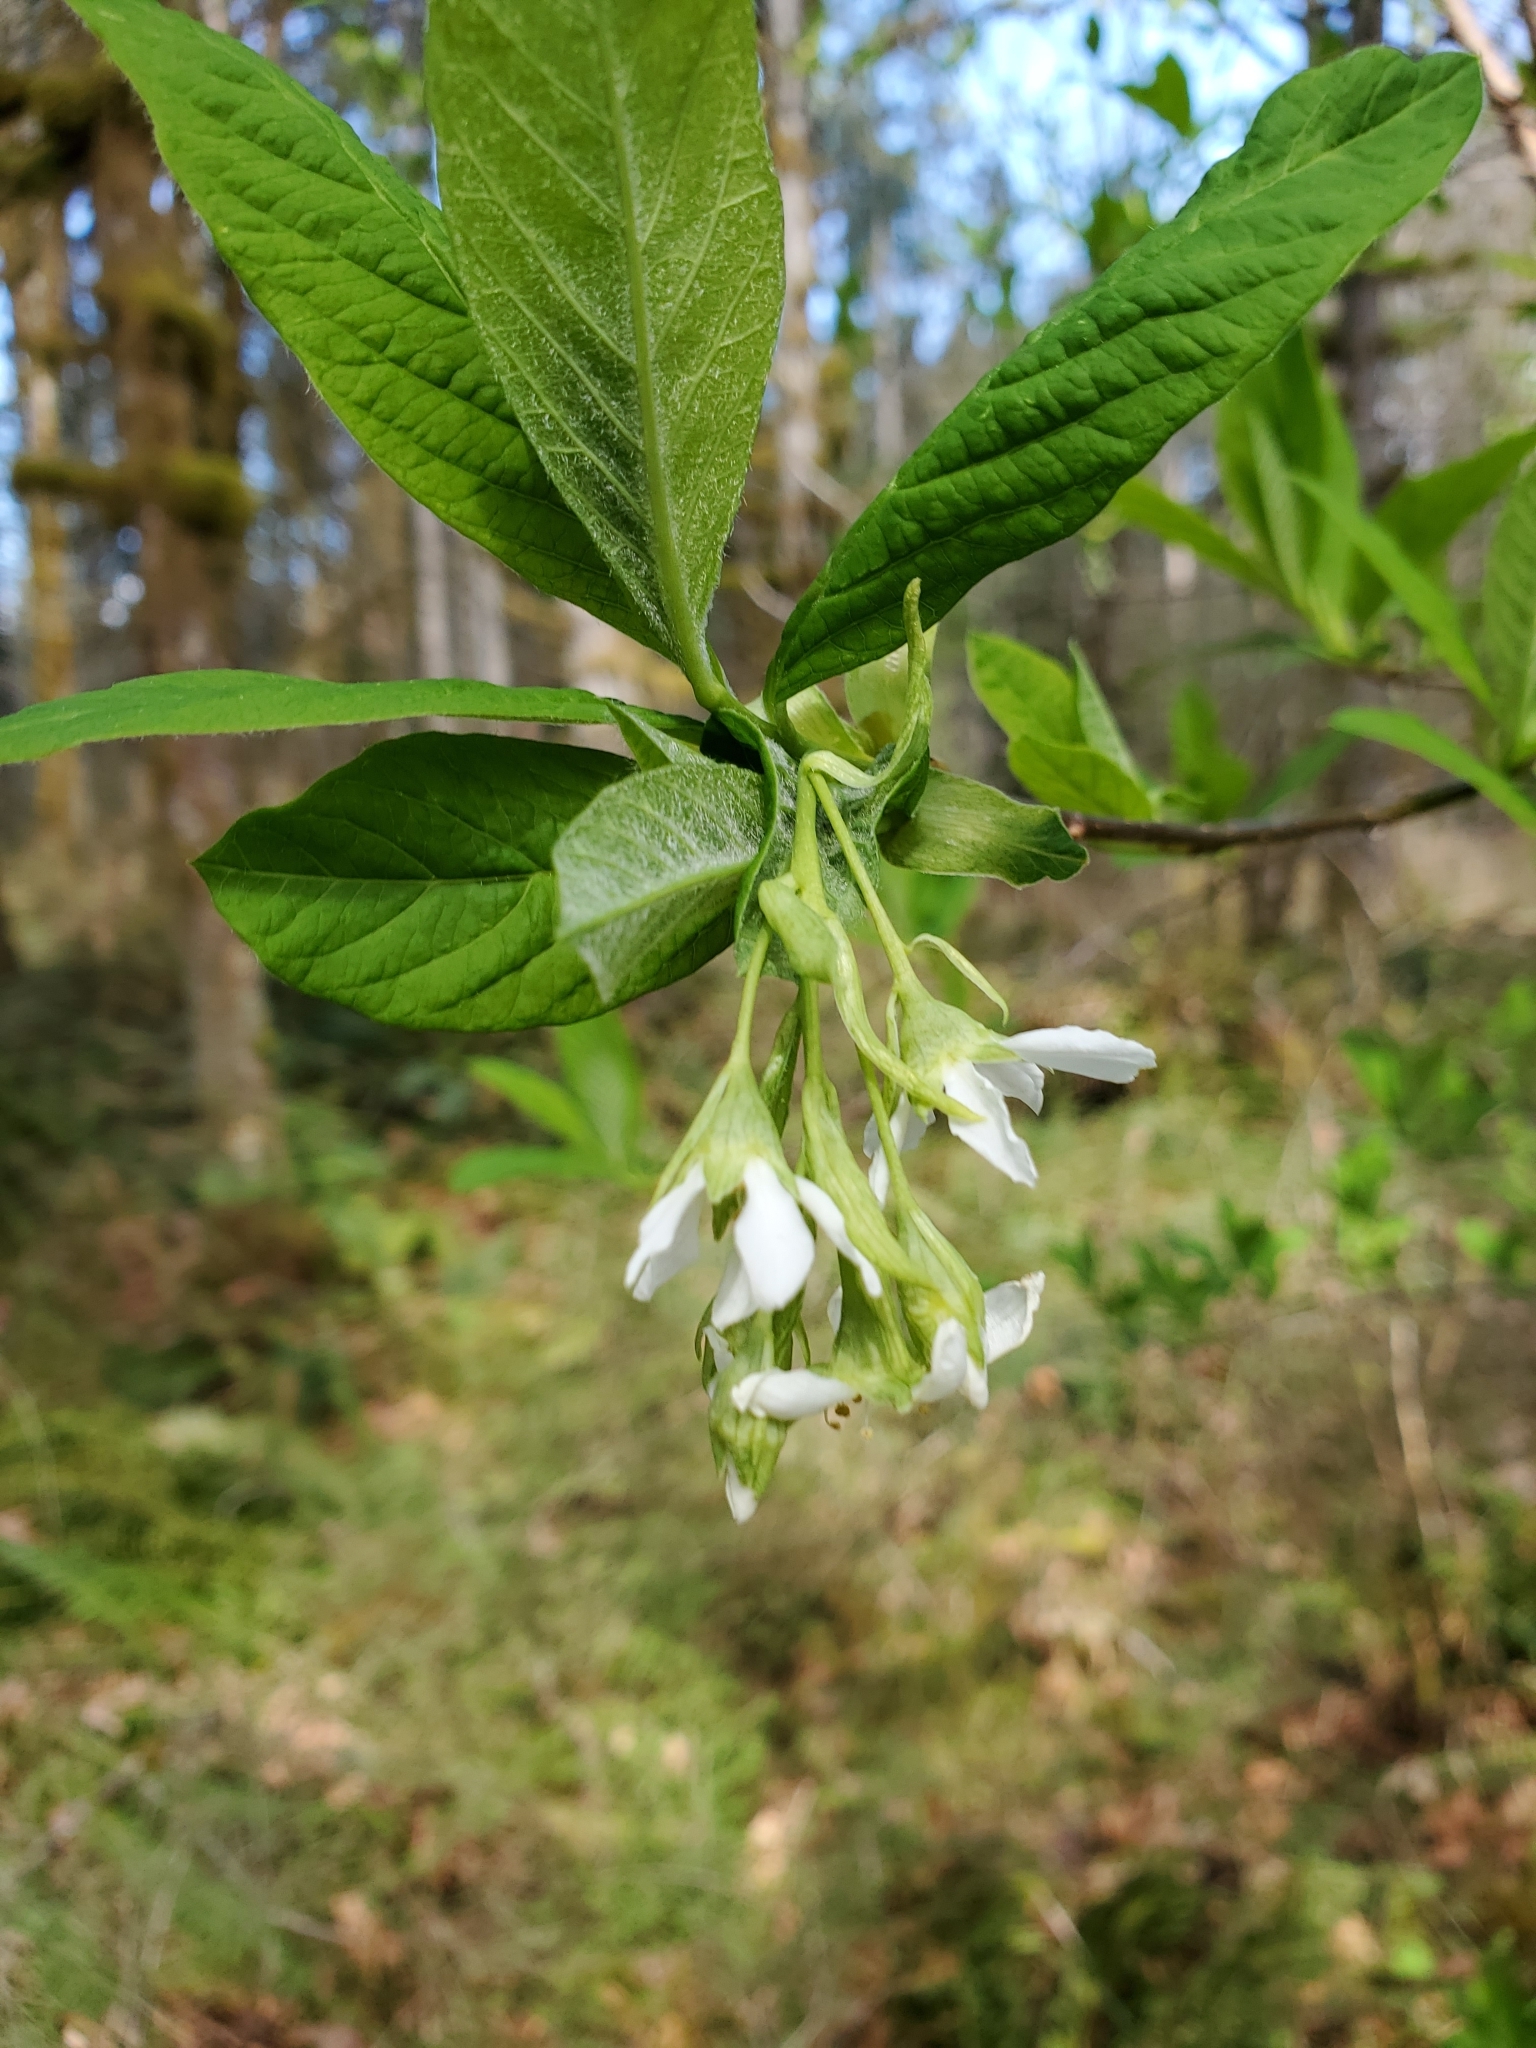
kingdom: Plantae
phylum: Tracheophyta
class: Magnoliopsida
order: Rosales
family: Rosaceae
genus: Oemleria
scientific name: Oemleria cerasiformis
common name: Osoberry
